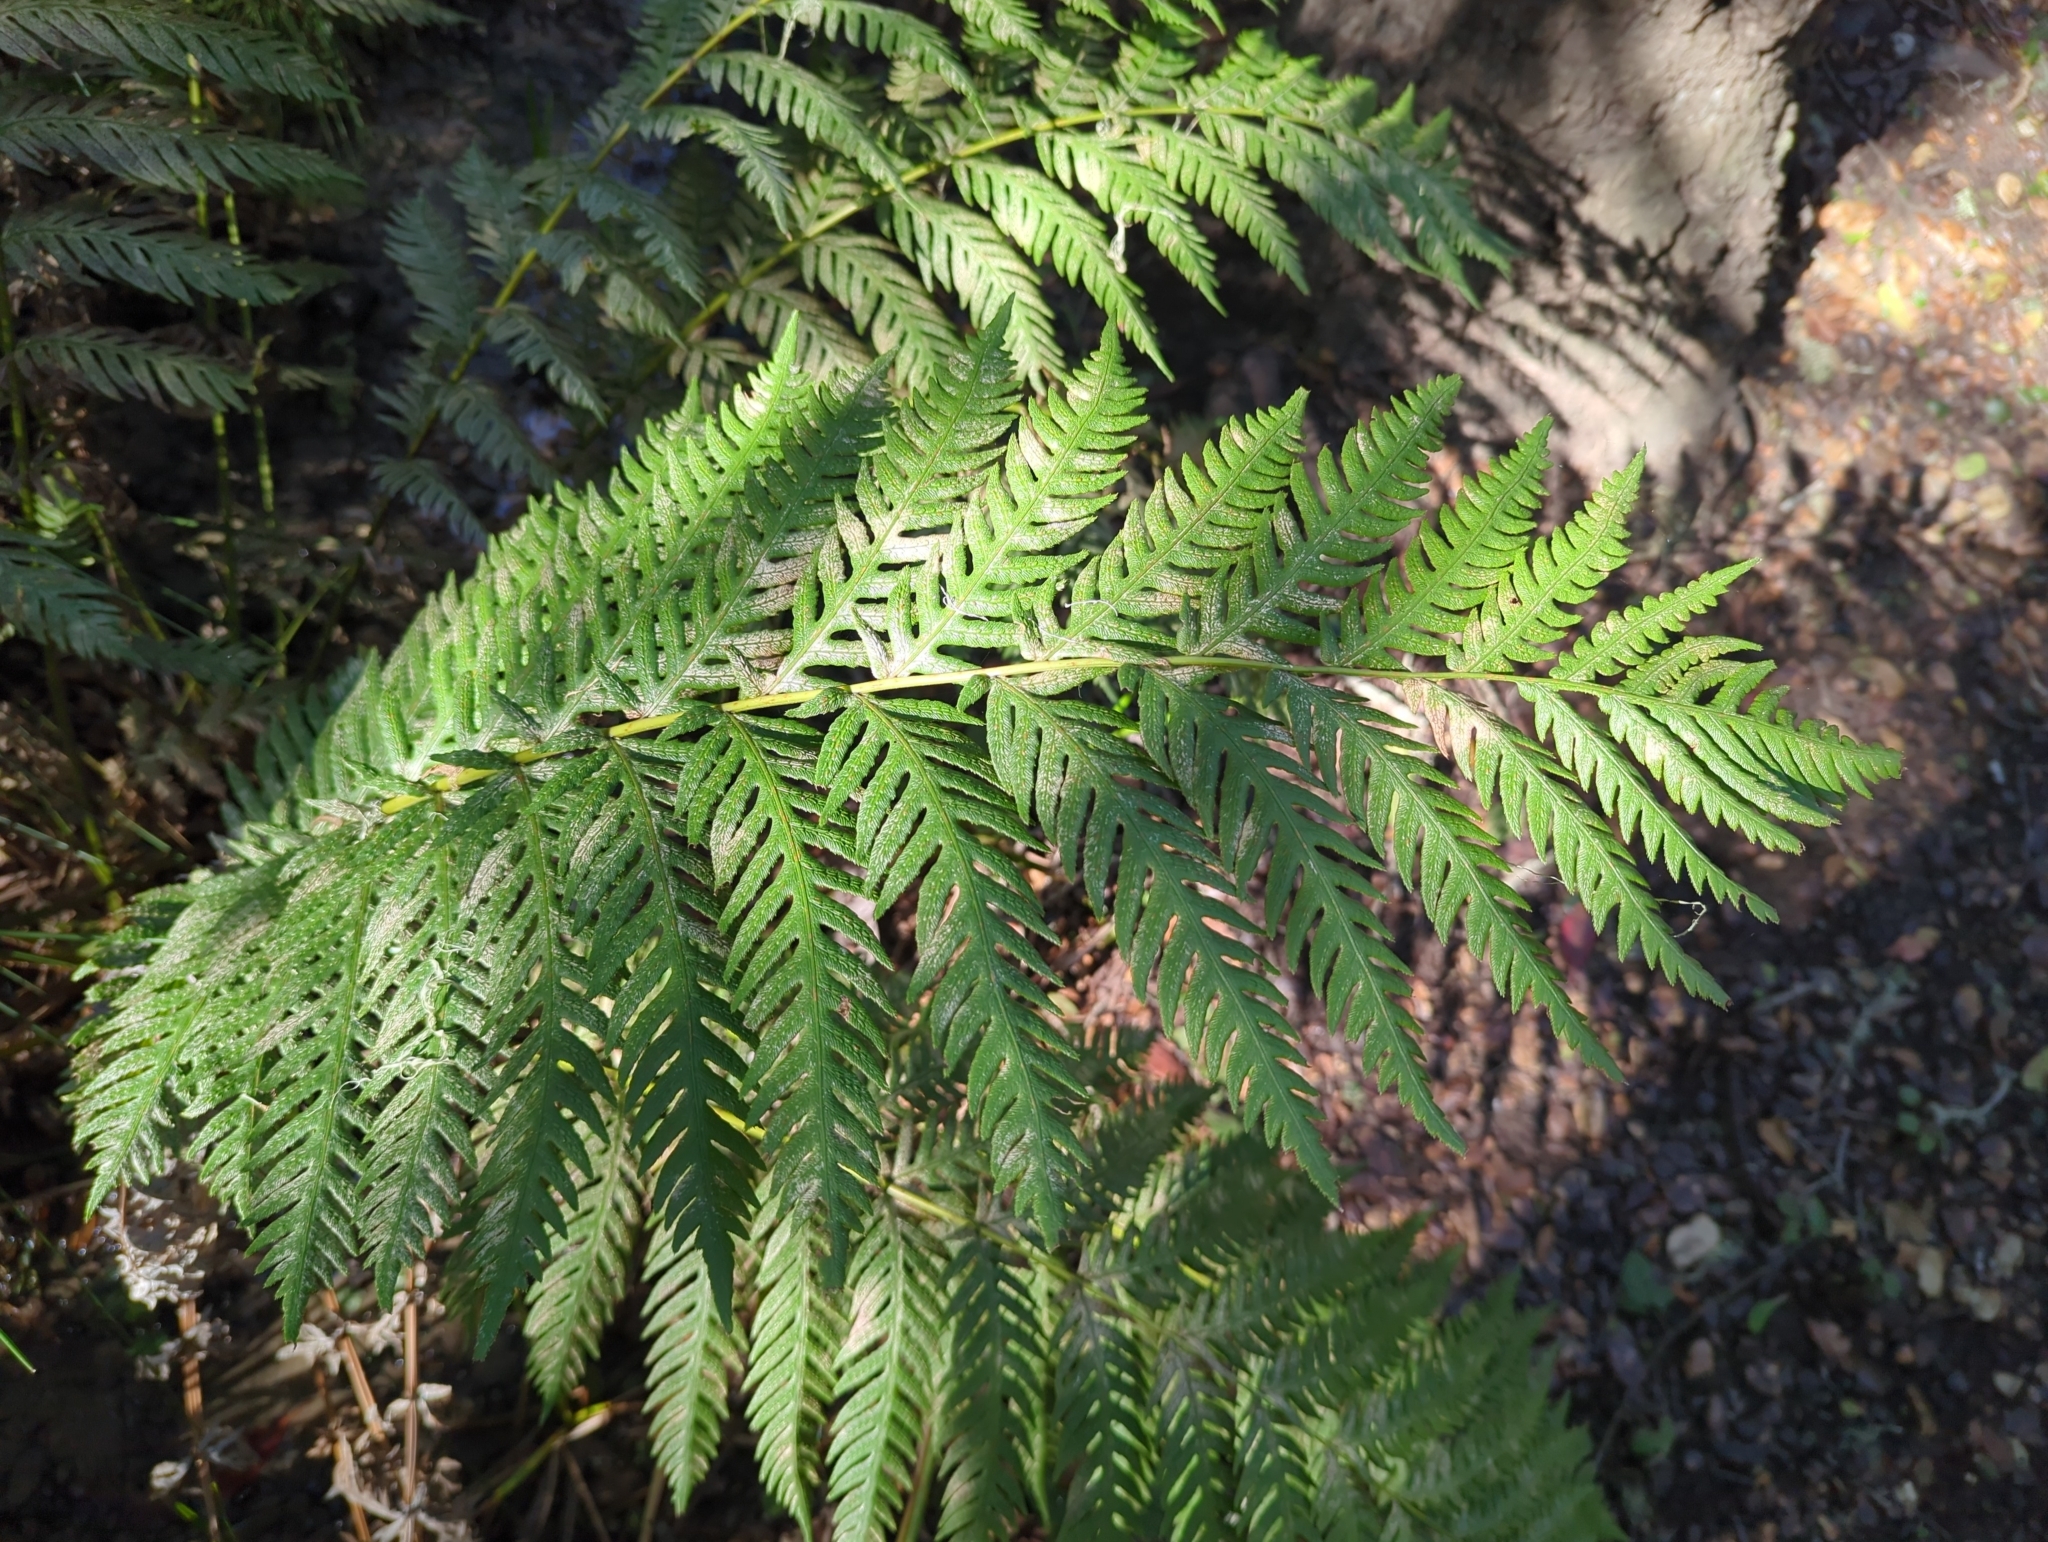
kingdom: Plantae
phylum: Tracheophyta
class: Polypodiopsida
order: Polypodiales
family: Blechnaceae
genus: Woodwardia
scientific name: Woodwardia fimbriata
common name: Giant chain fern
